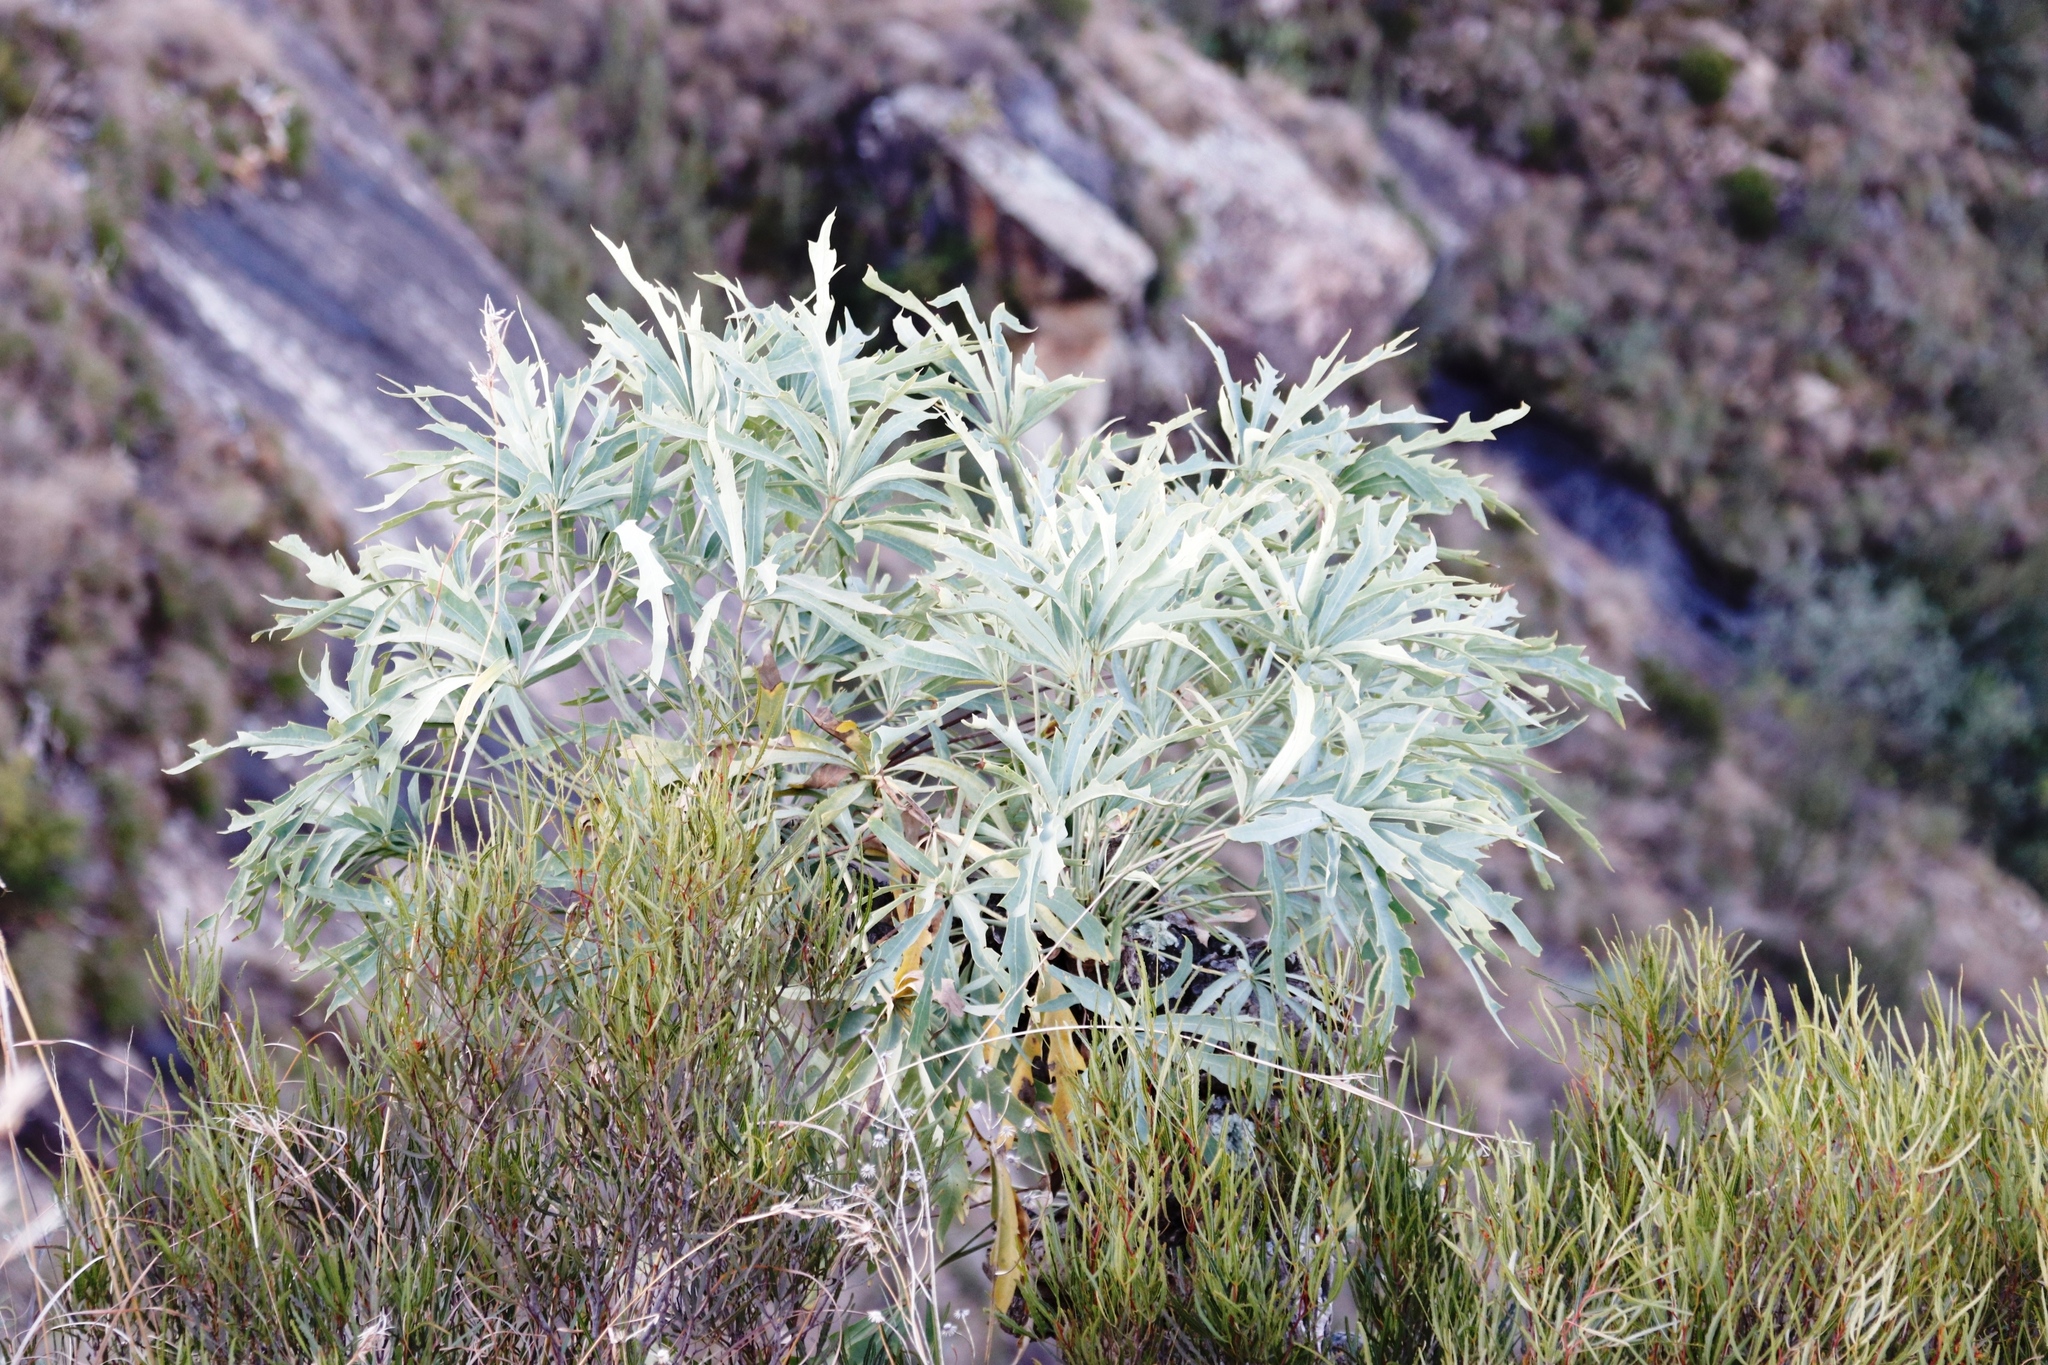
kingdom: Plantae
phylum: Tracheophyta
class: Magnoliopsida
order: Apiales
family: Araliaceae
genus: Cussonia
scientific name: Cussonia paniculata
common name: Cabbagetree
